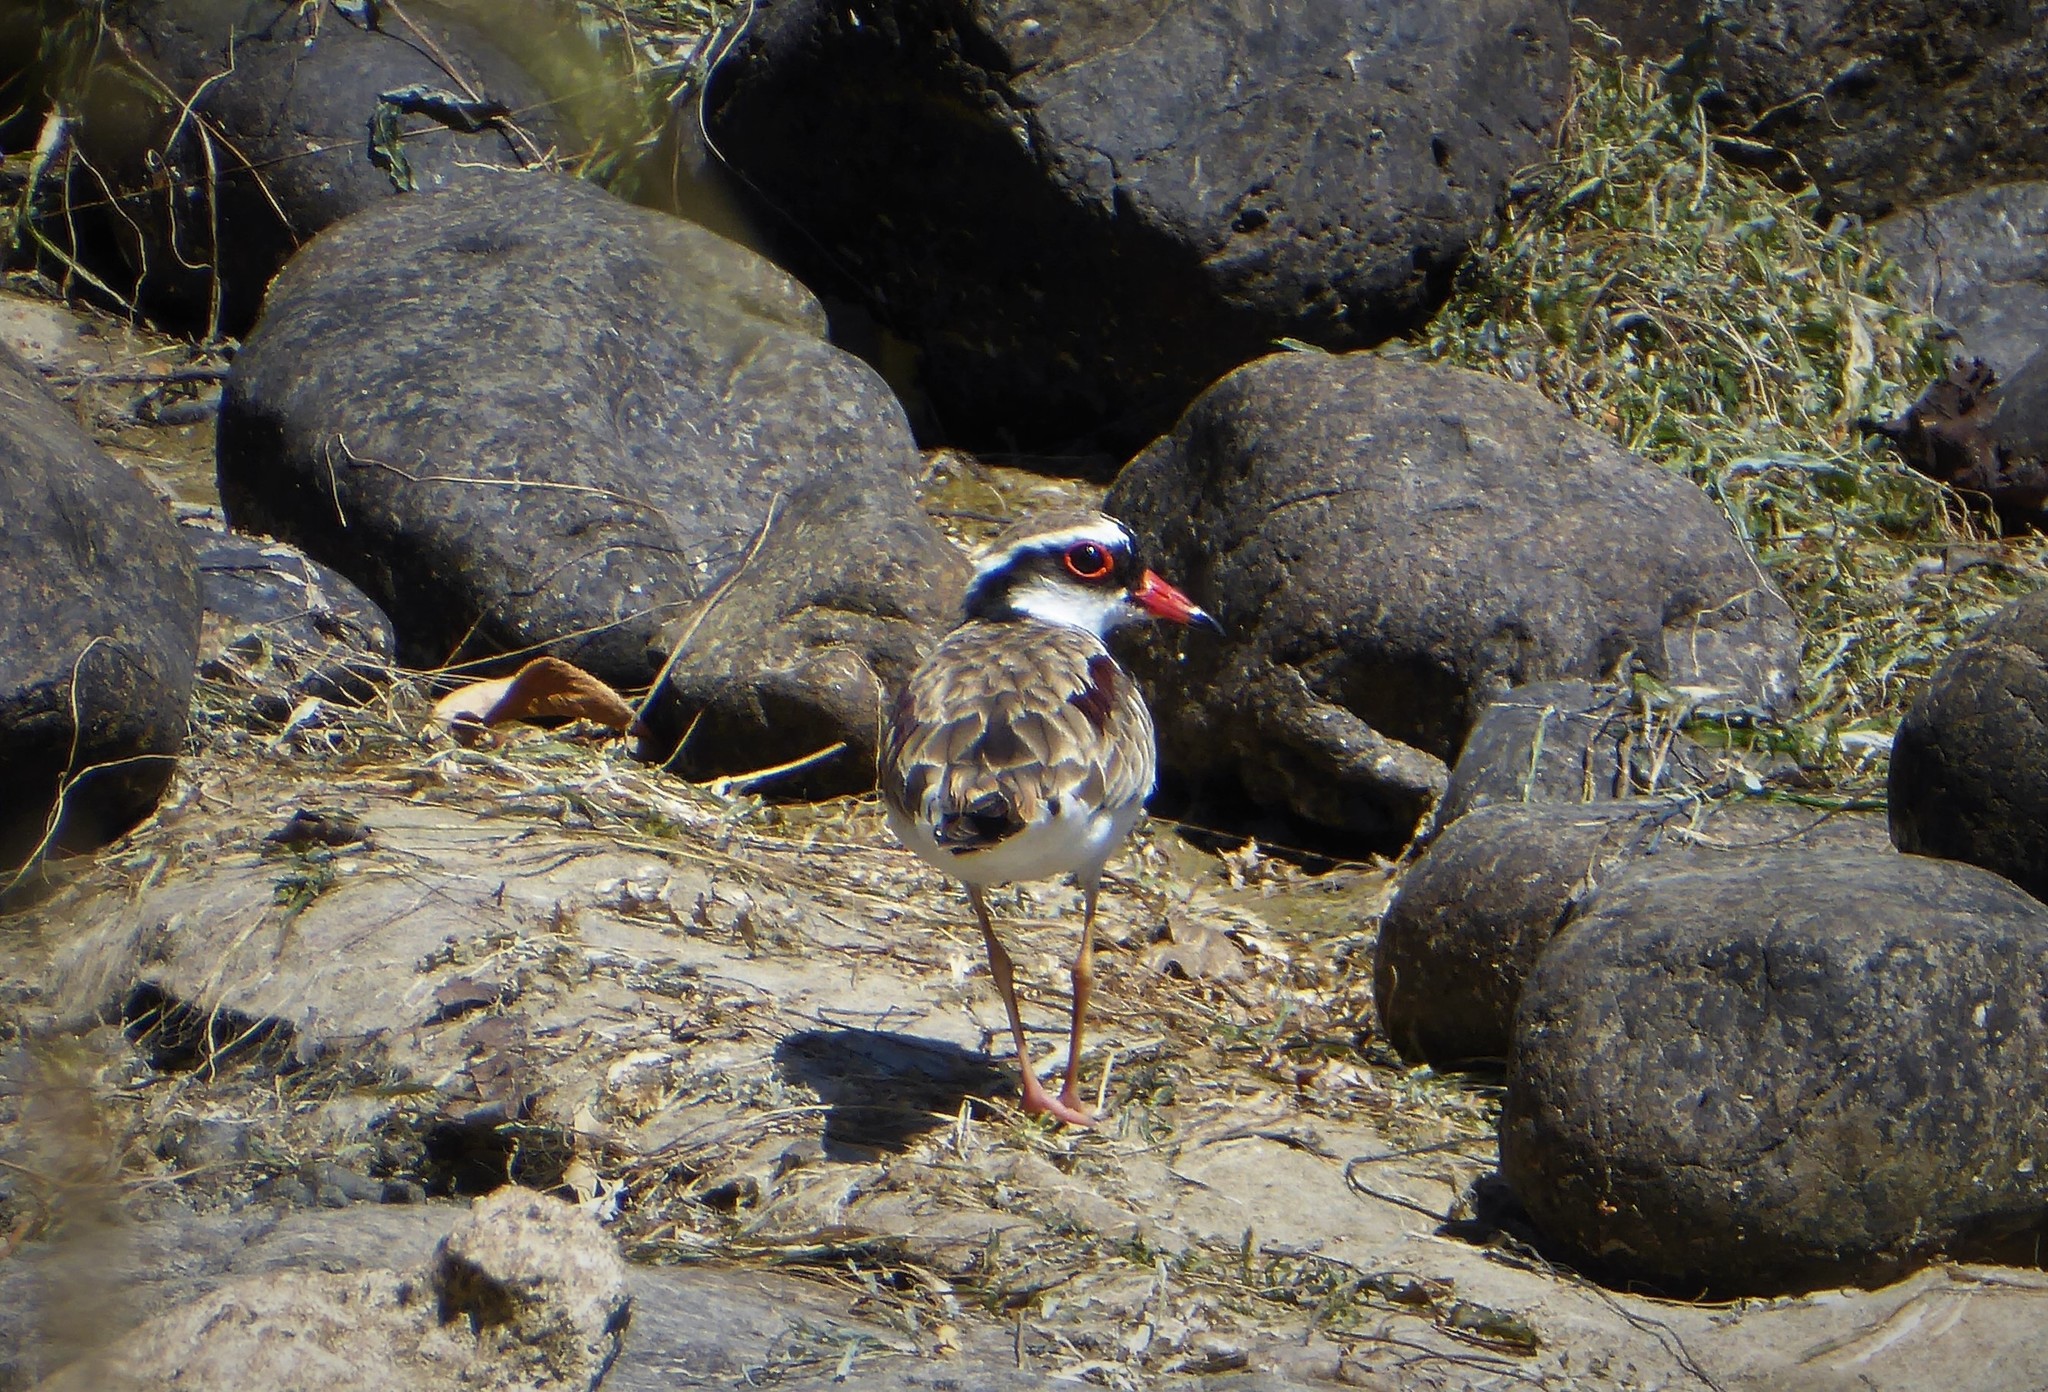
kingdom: Animalia
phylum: Chordata
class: Aves
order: Charadriiformes
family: Charadriidae
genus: Elseyornis
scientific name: Elseyornis melanops
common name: Black-fronted dotterel
